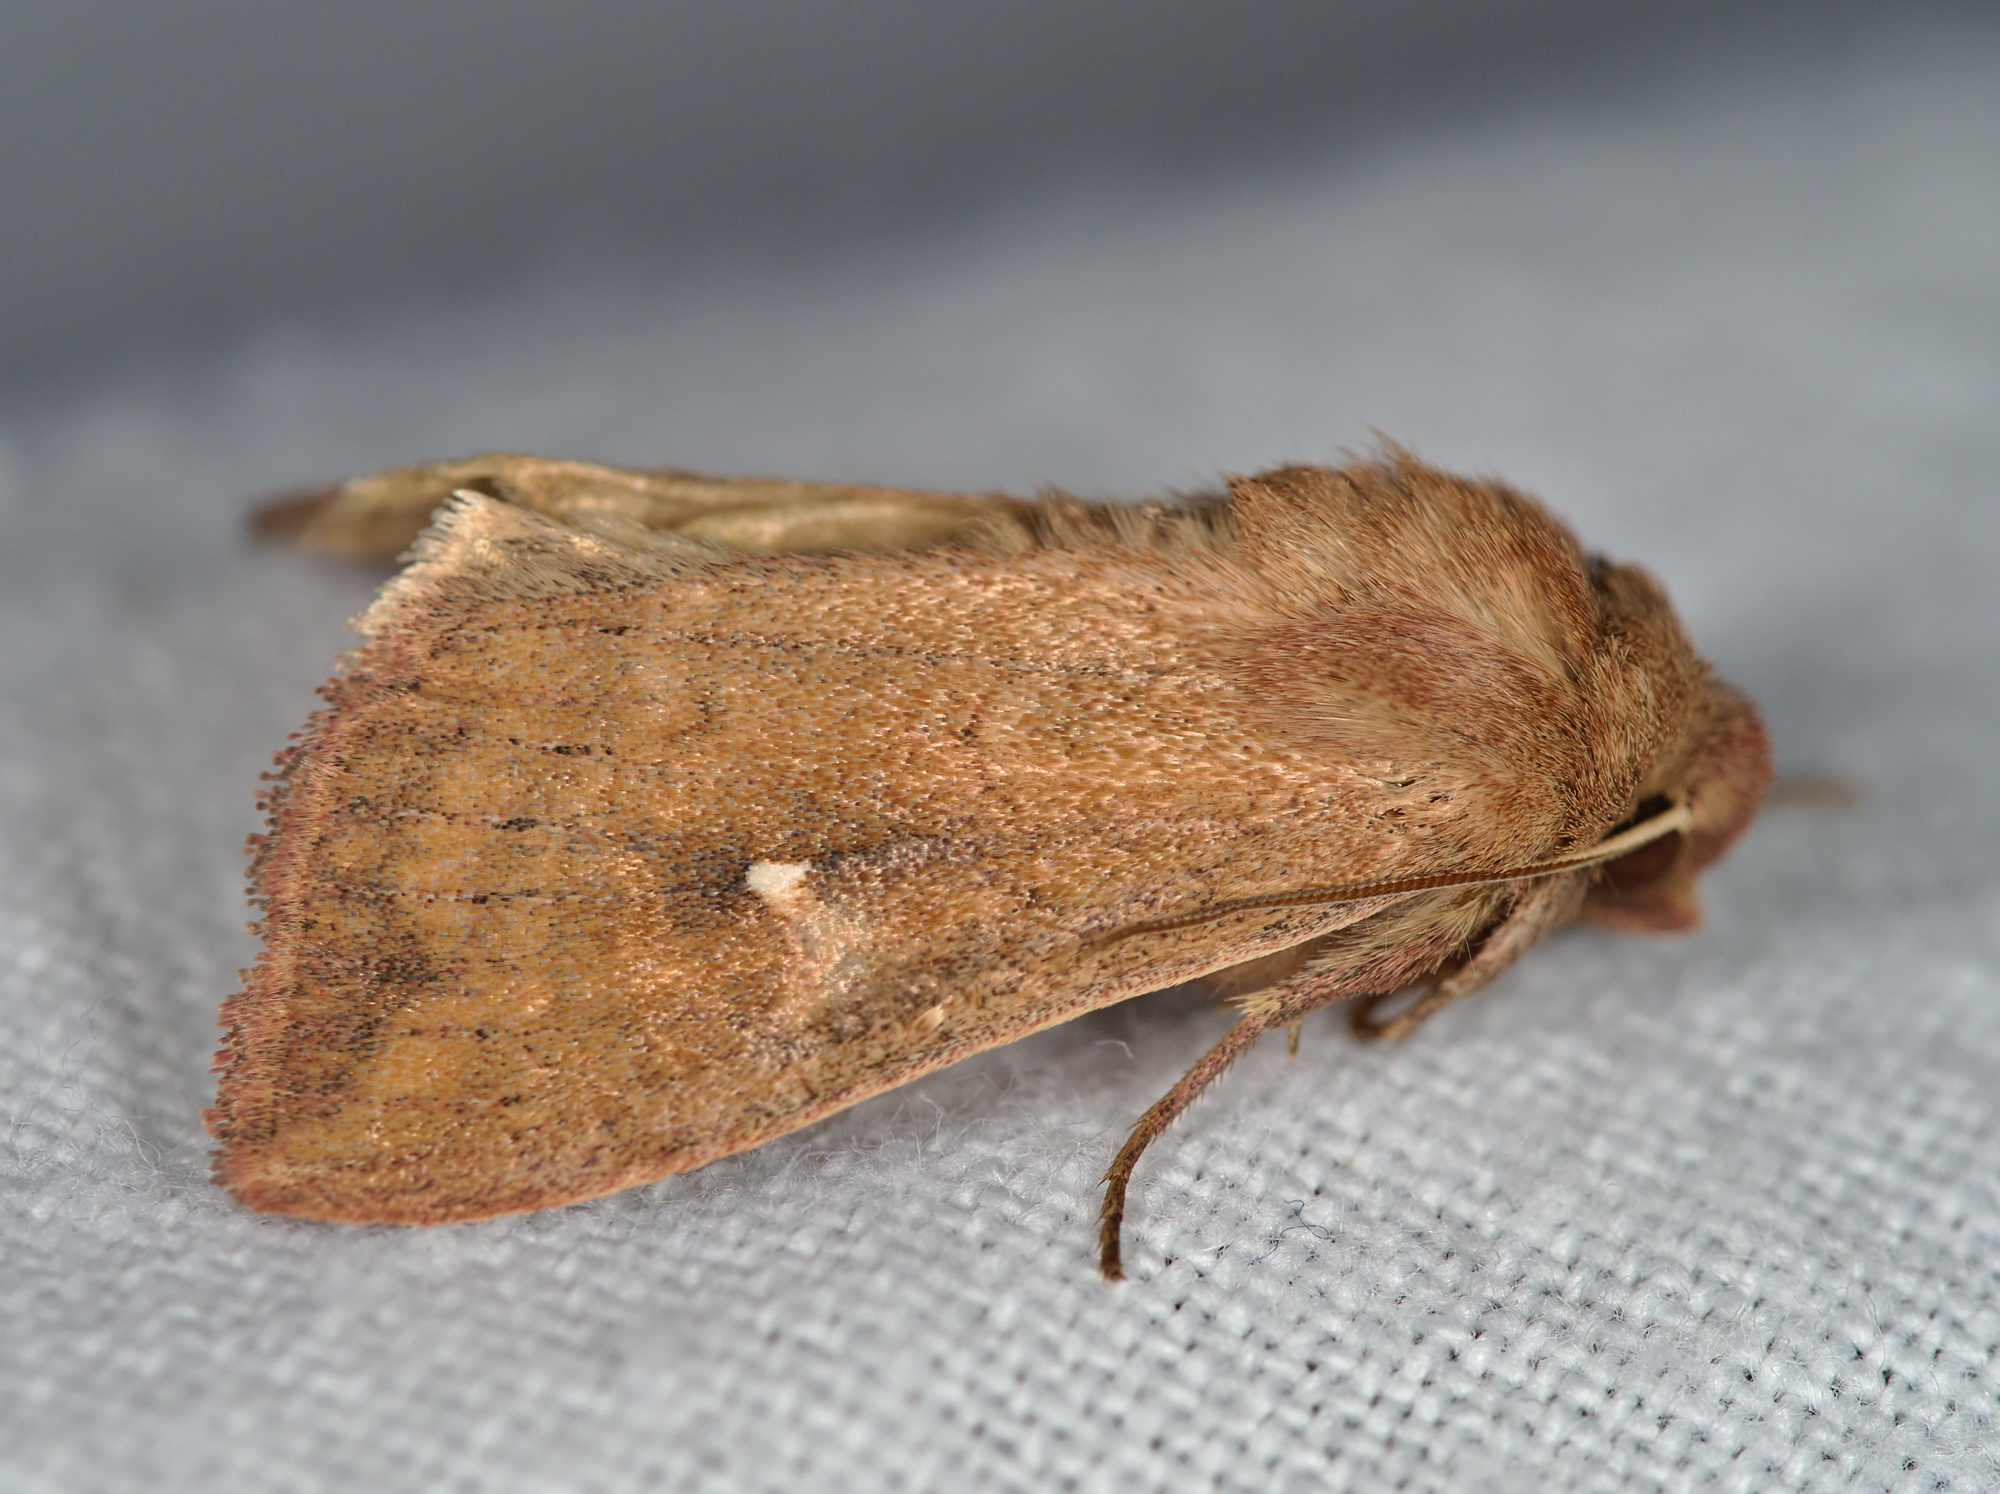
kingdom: Animalia
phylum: Arthropoda
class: Insecta
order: Lepidoptera
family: Noctuidae
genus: Mythimna
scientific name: Mythimna albipuncta
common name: White-point
